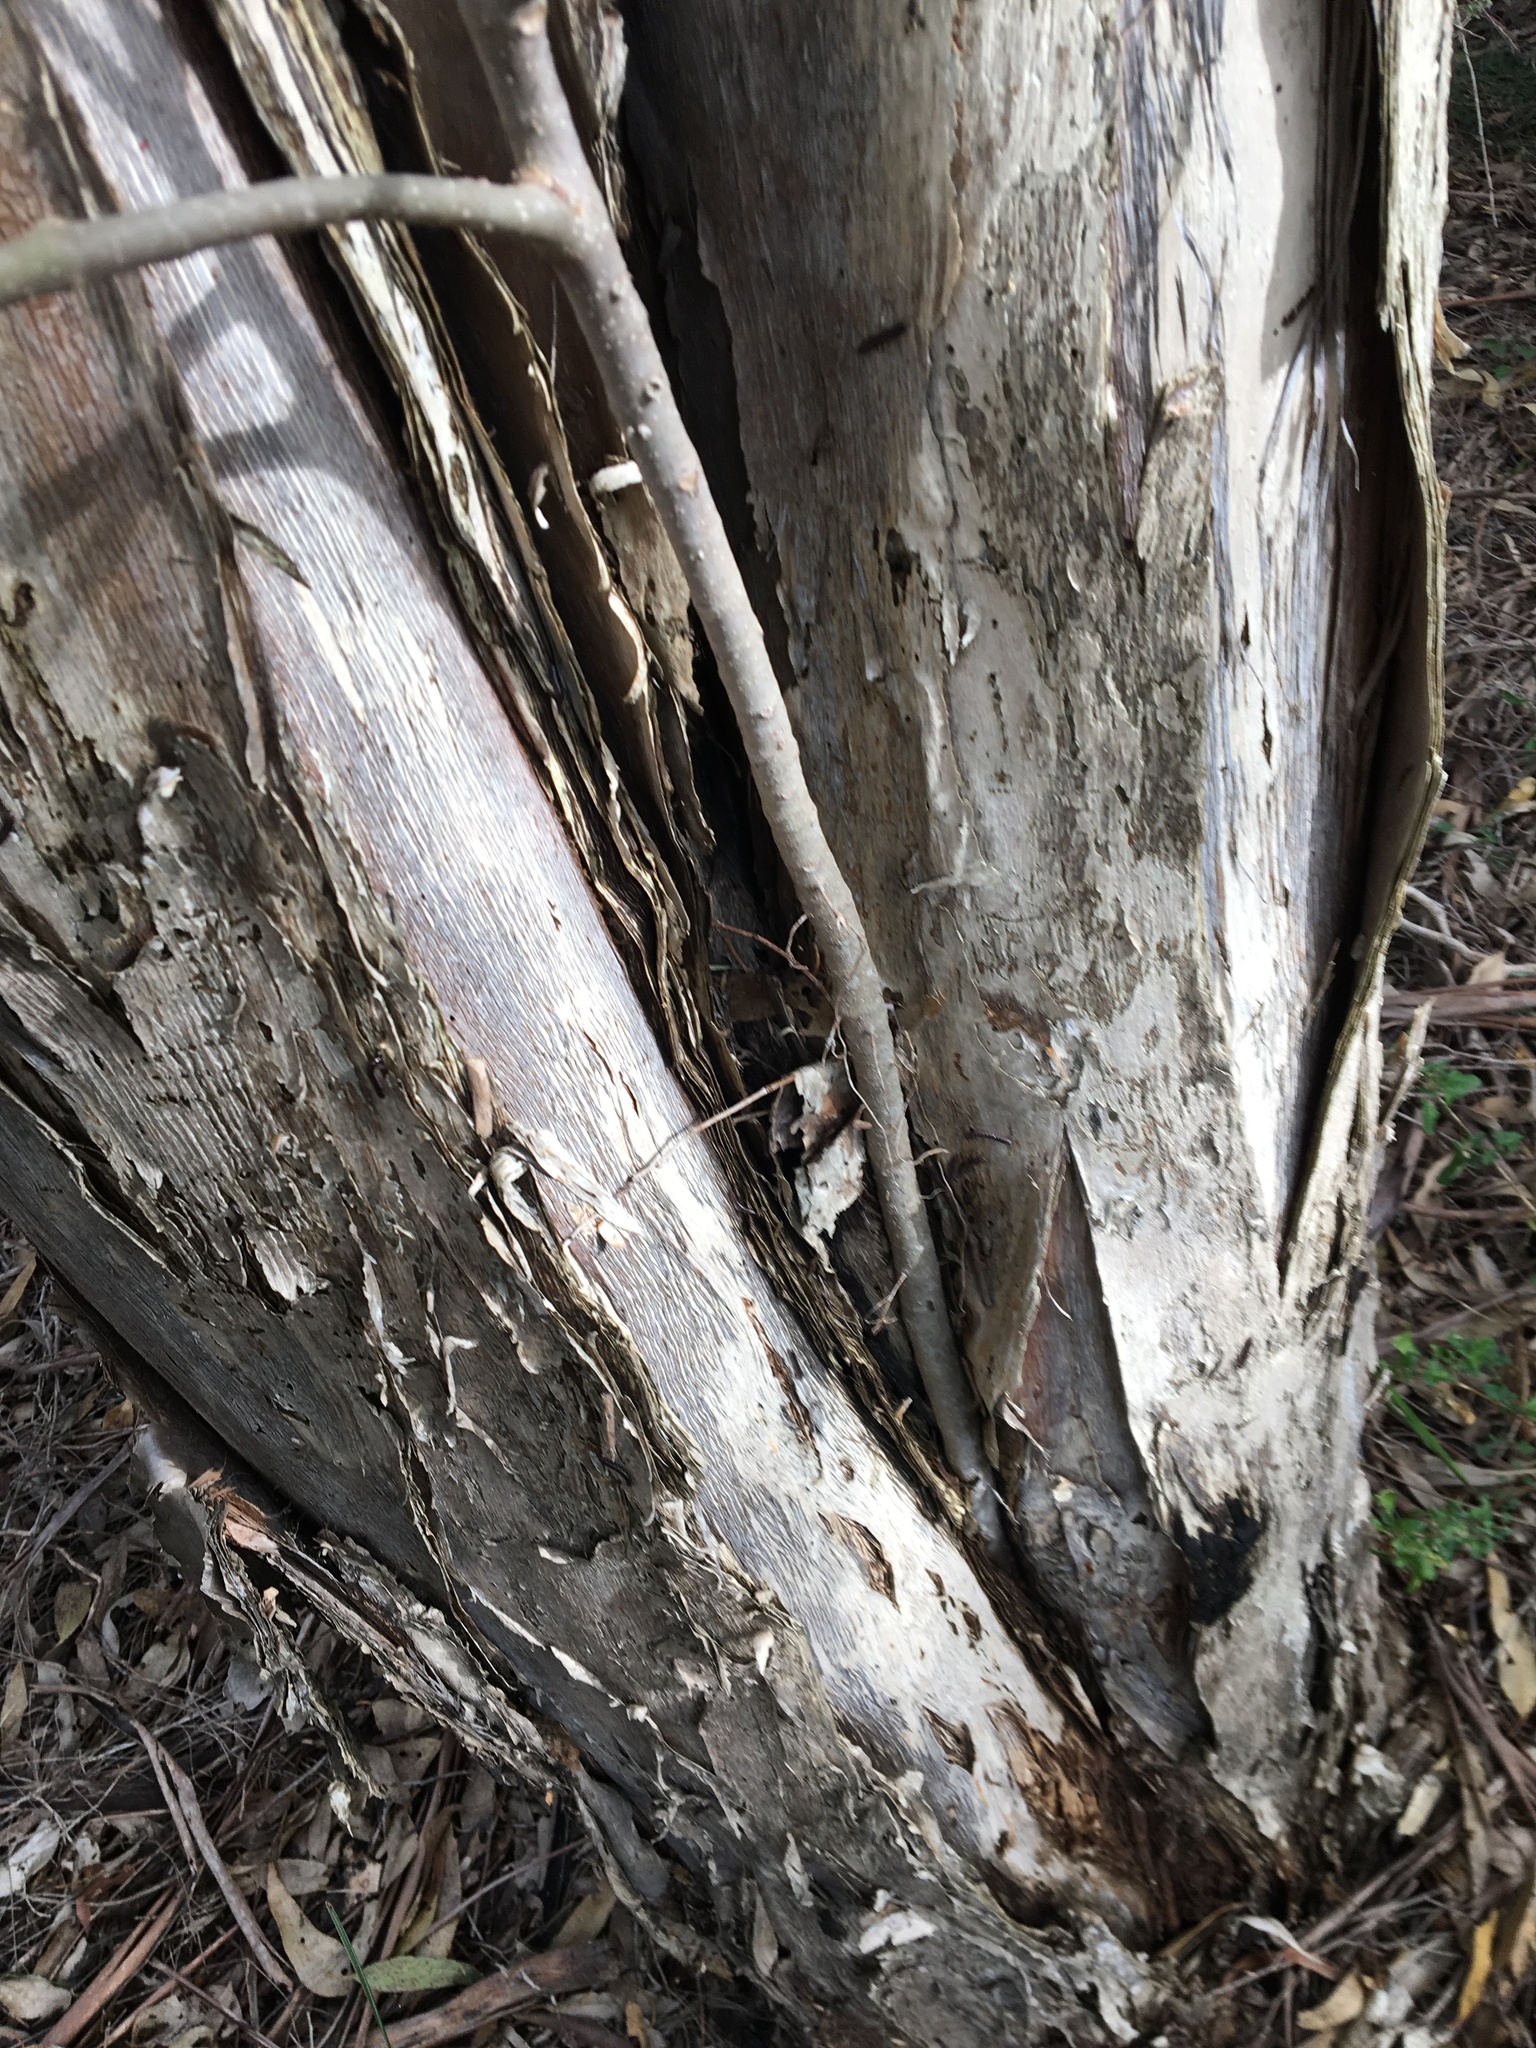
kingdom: Plantae
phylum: Tracheophyta
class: Magnoliopsida
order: Rosales
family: Moraceae
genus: Ficus
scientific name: Ficus rubiginosa
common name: Port jackson fig
